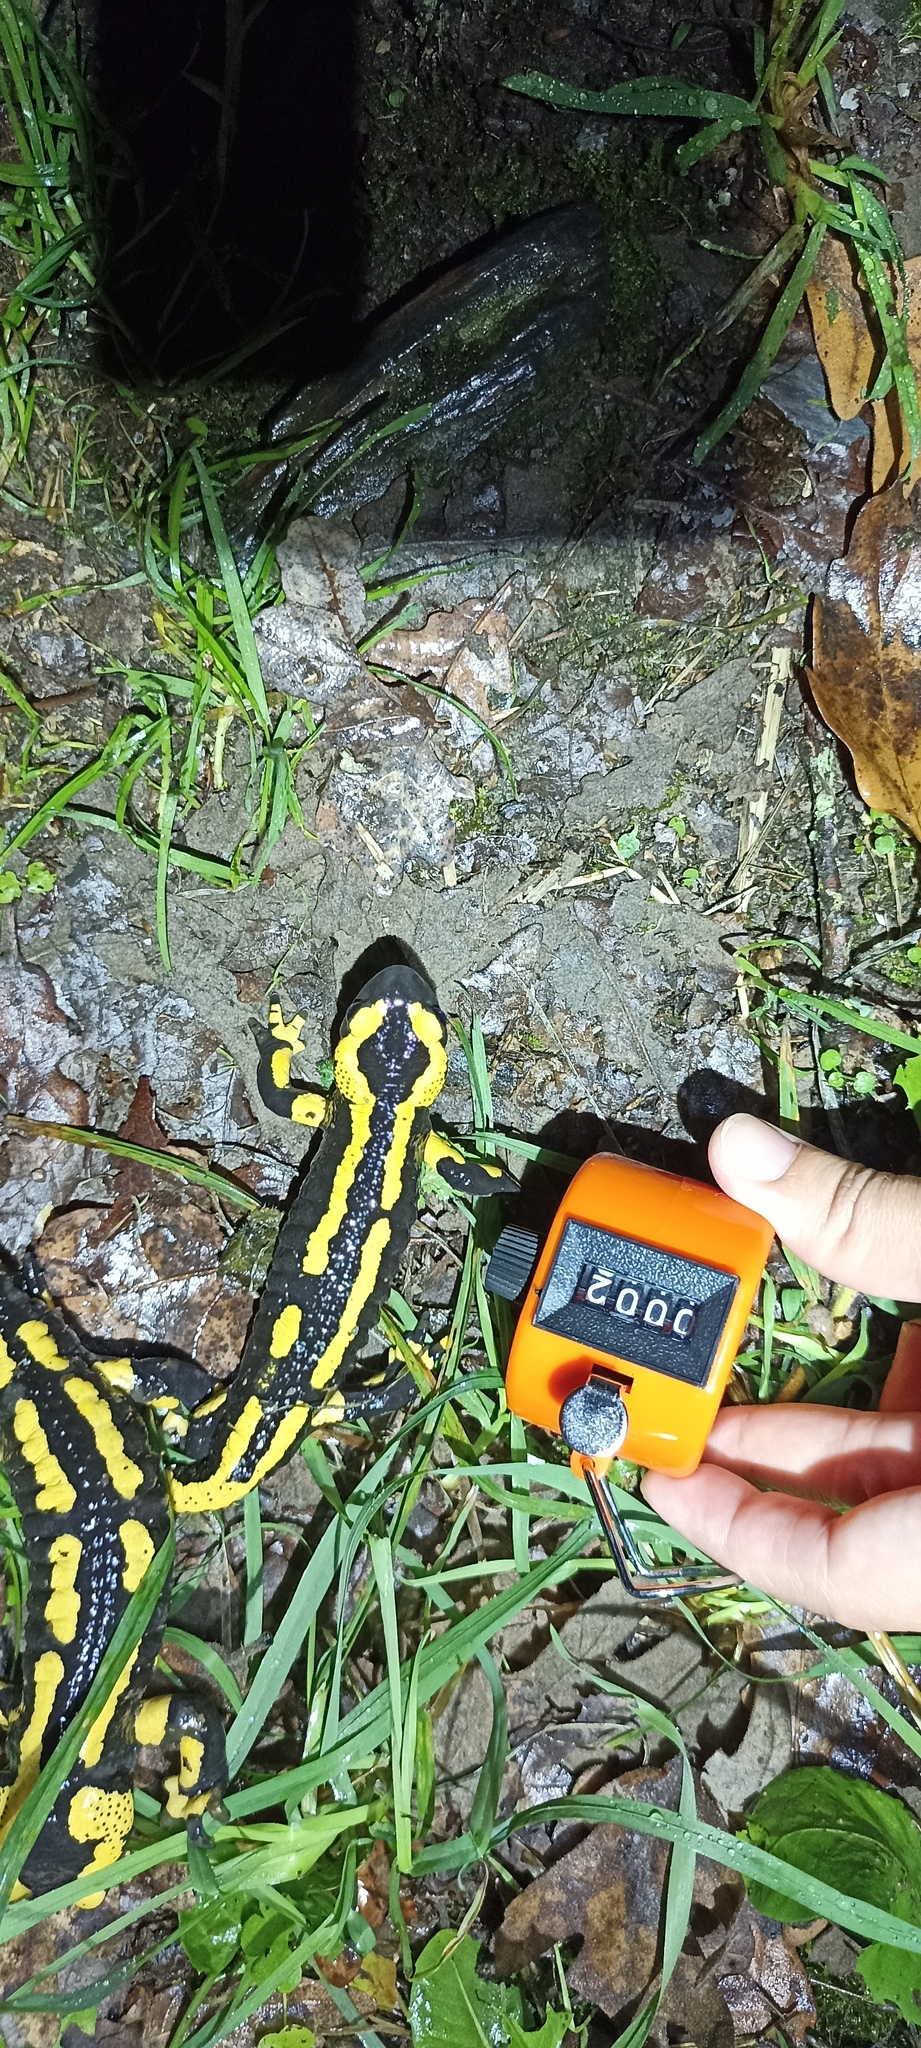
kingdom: Animalia
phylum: Chordata
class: Amphibia
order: Caudata
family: Salamandridae
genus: Salamandra
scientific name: Salamandra salamandra
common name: Fire salamander
